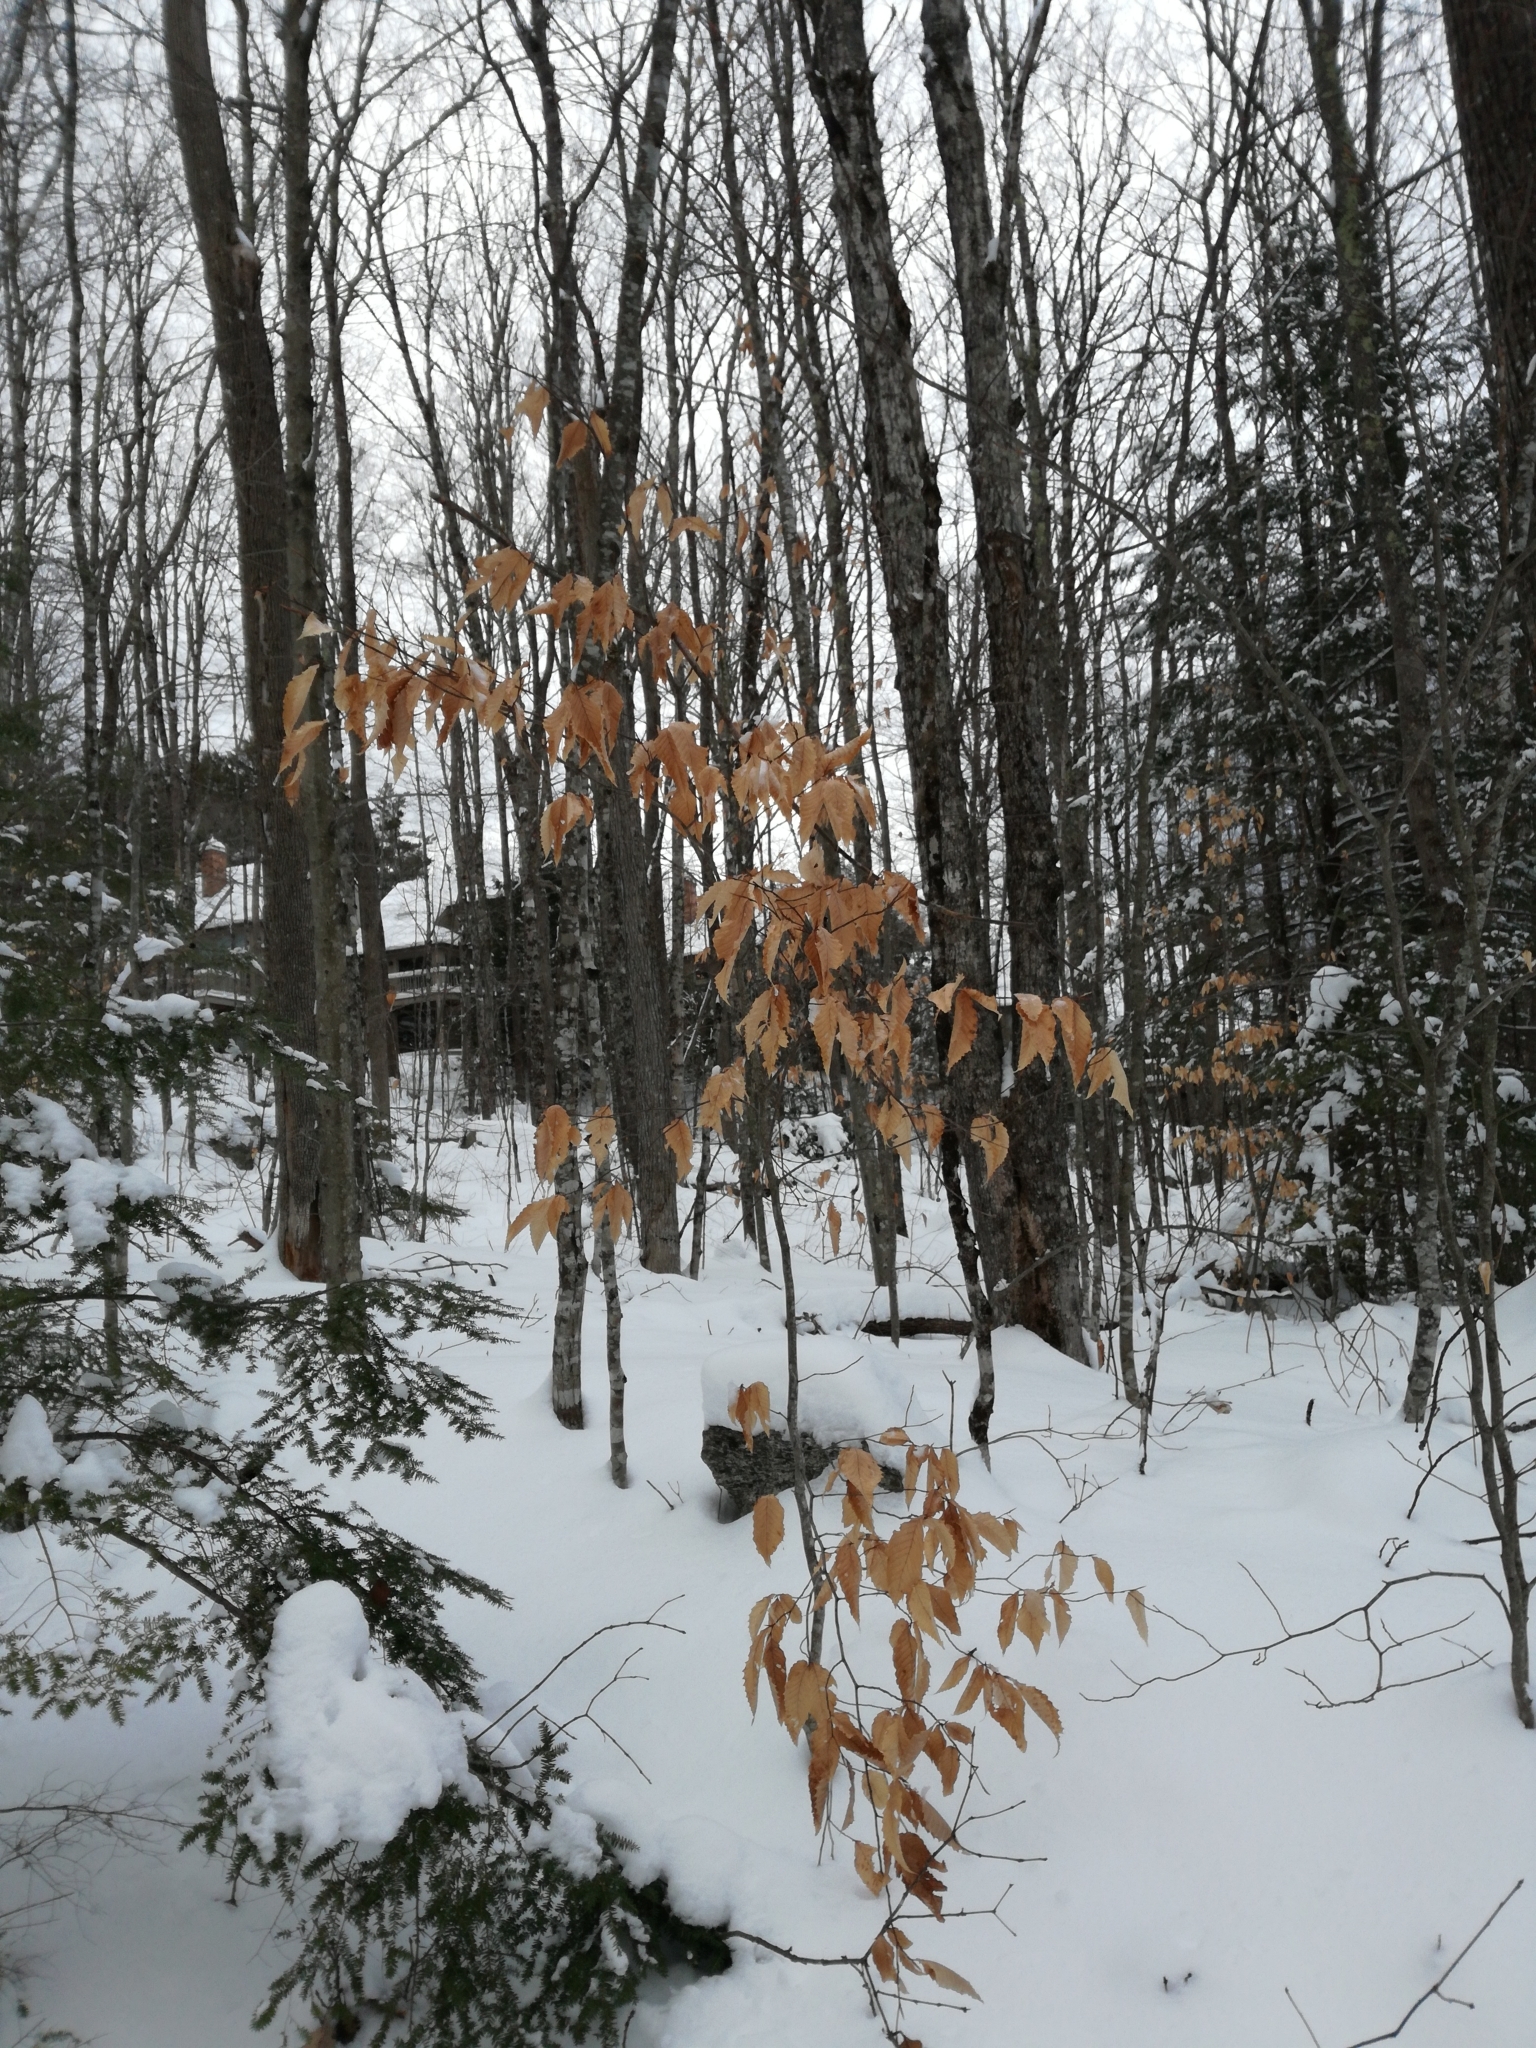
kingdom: Plantae
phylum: Tracheophyta
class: Magnoliopsida
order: Fagales
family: Fagaceae
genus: Fagus
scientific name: Fagus grandifolia
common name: American beech
